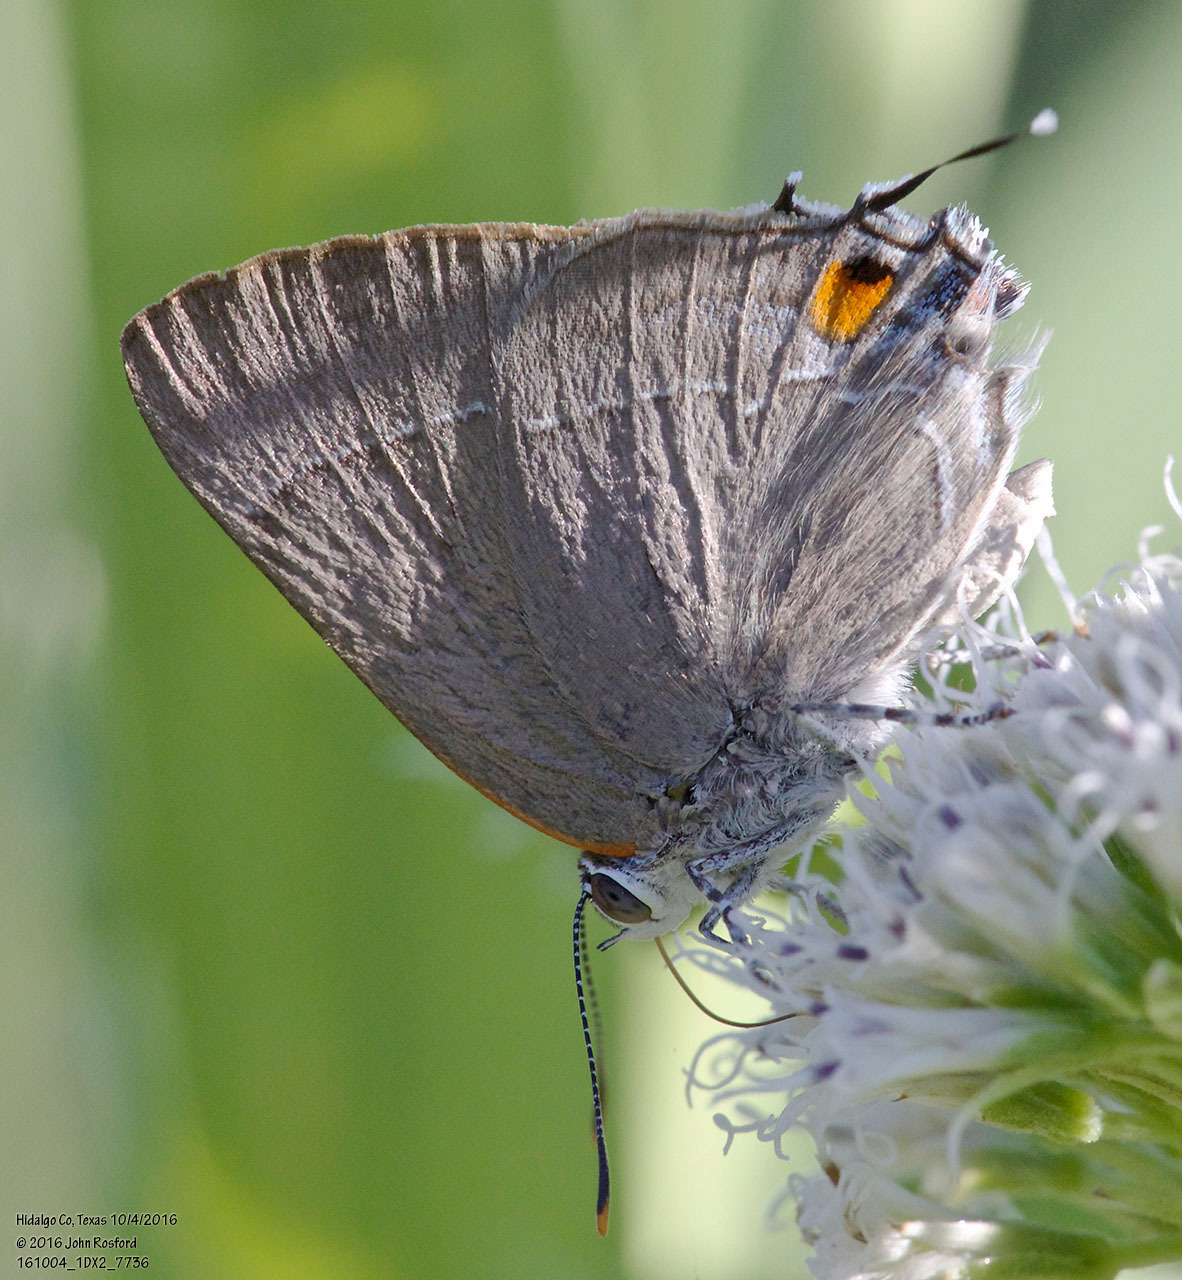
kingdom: Animalia
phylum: Arthropoda
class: Insecta
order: Lepidoptera
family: Lycaenidae
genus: Thecla
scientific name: Thecla marius
